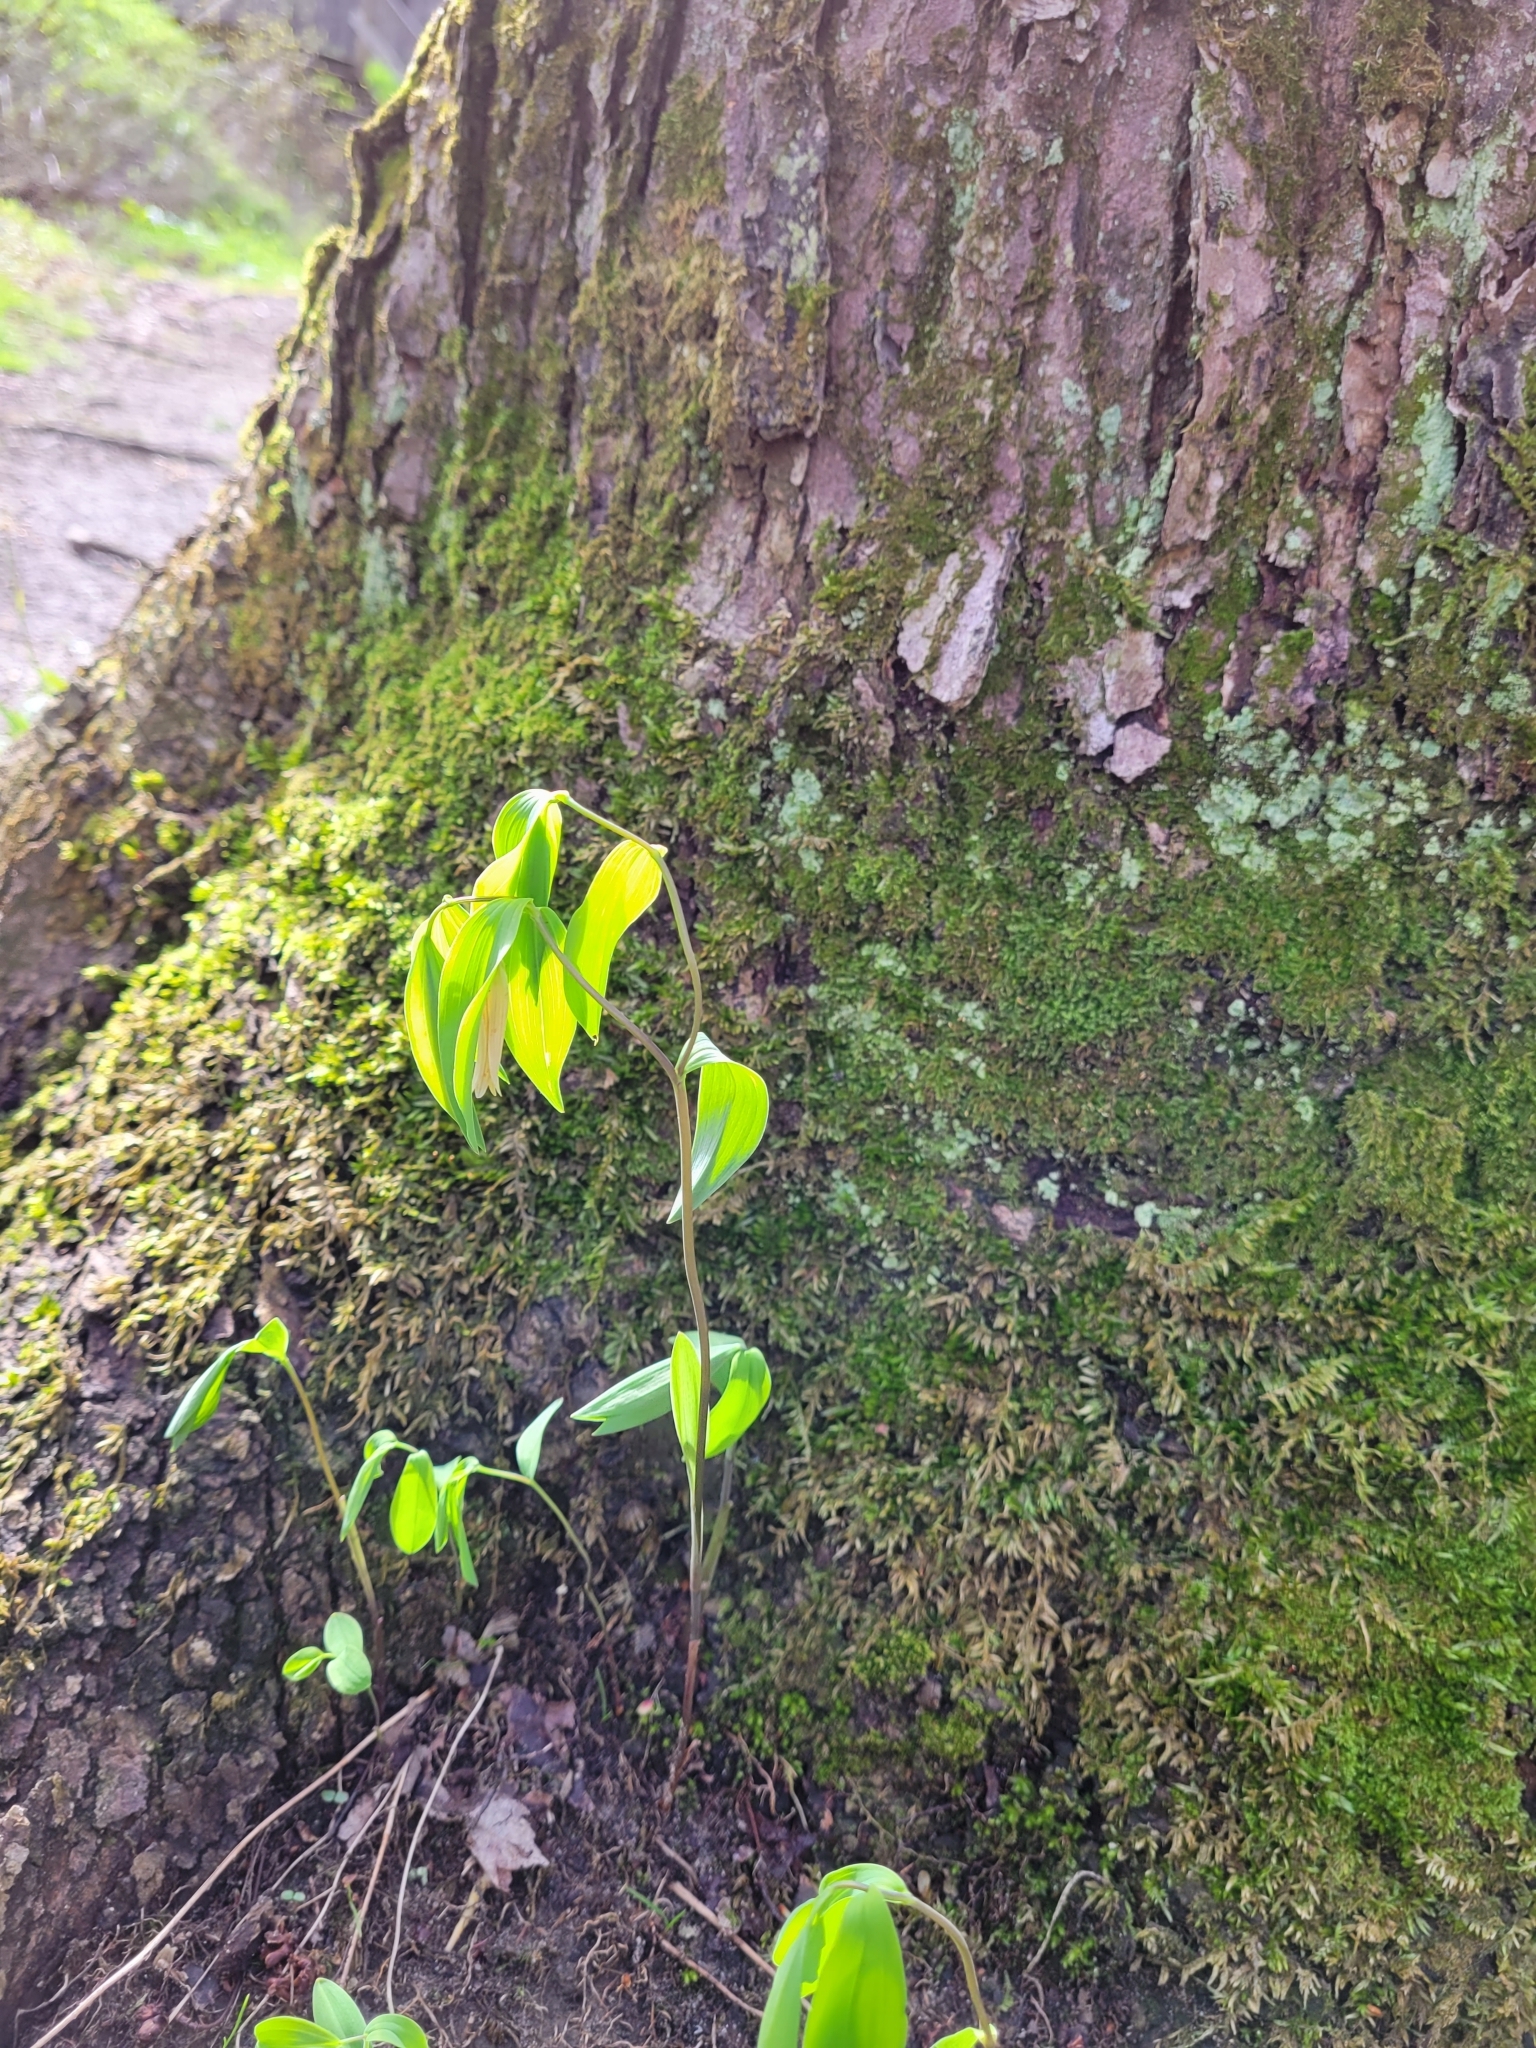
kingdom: Plantae
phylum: Tracheophyta
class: Liliopsida
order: Liliales
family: Colchicaceae
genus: Uvularia
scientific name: Uvularia sessilifolia
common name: Straw-lily
